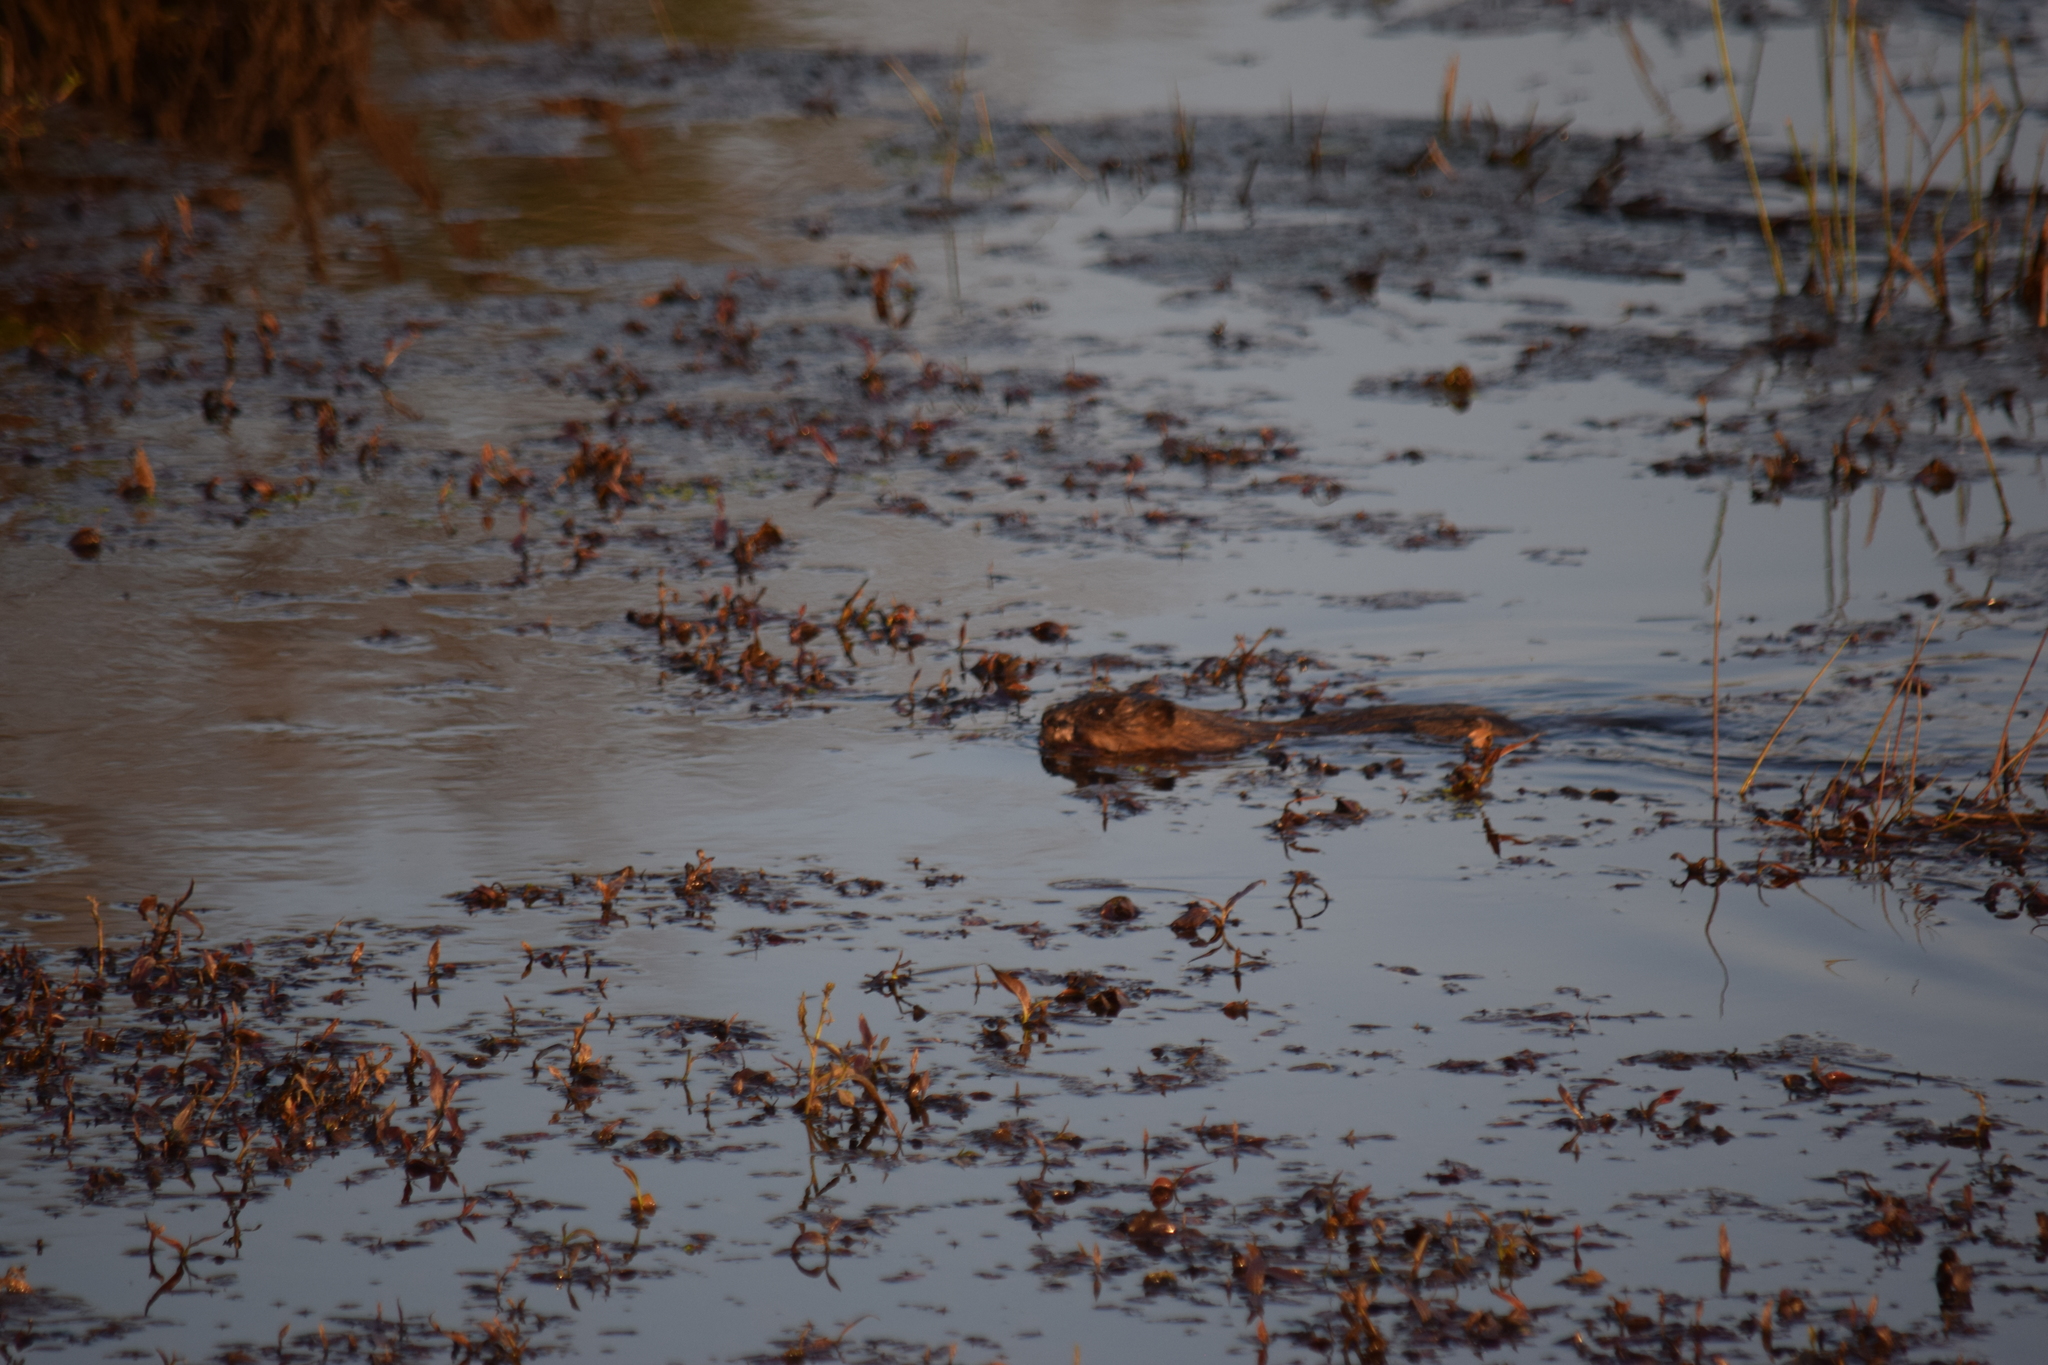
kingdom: Animalia
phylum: Chordata
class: Mammalia
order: Rodentia
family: Cricetidae
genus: Ondatra
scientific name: Ondatra zibethicus
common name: Muskrat
